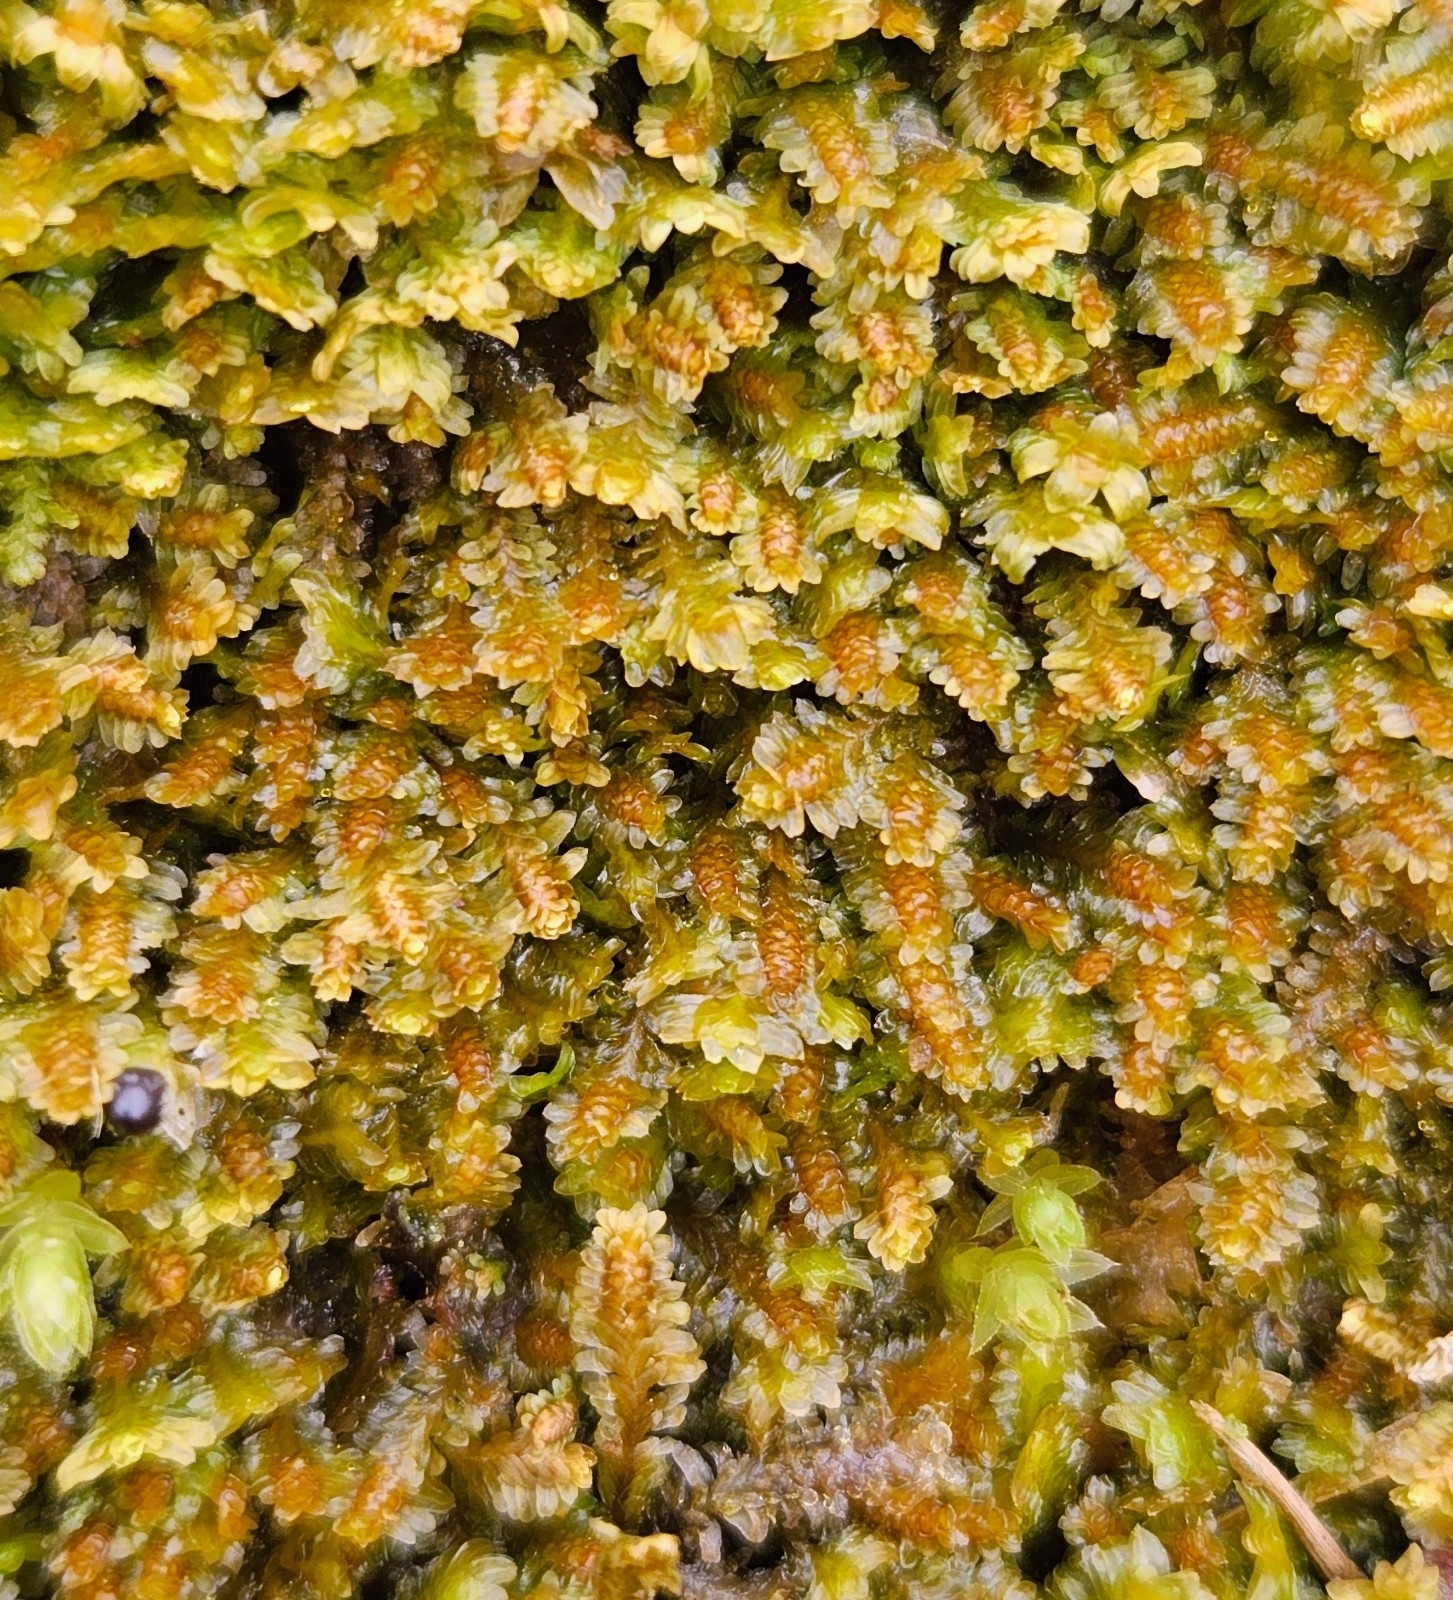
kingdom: Plantae
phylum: Marchantiophyta
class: Jungermanniopsida
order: Jungermanniales
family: Scapaniaceae
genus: Diplophyllum
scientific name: Diplophyllum albicans
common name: White earwort
